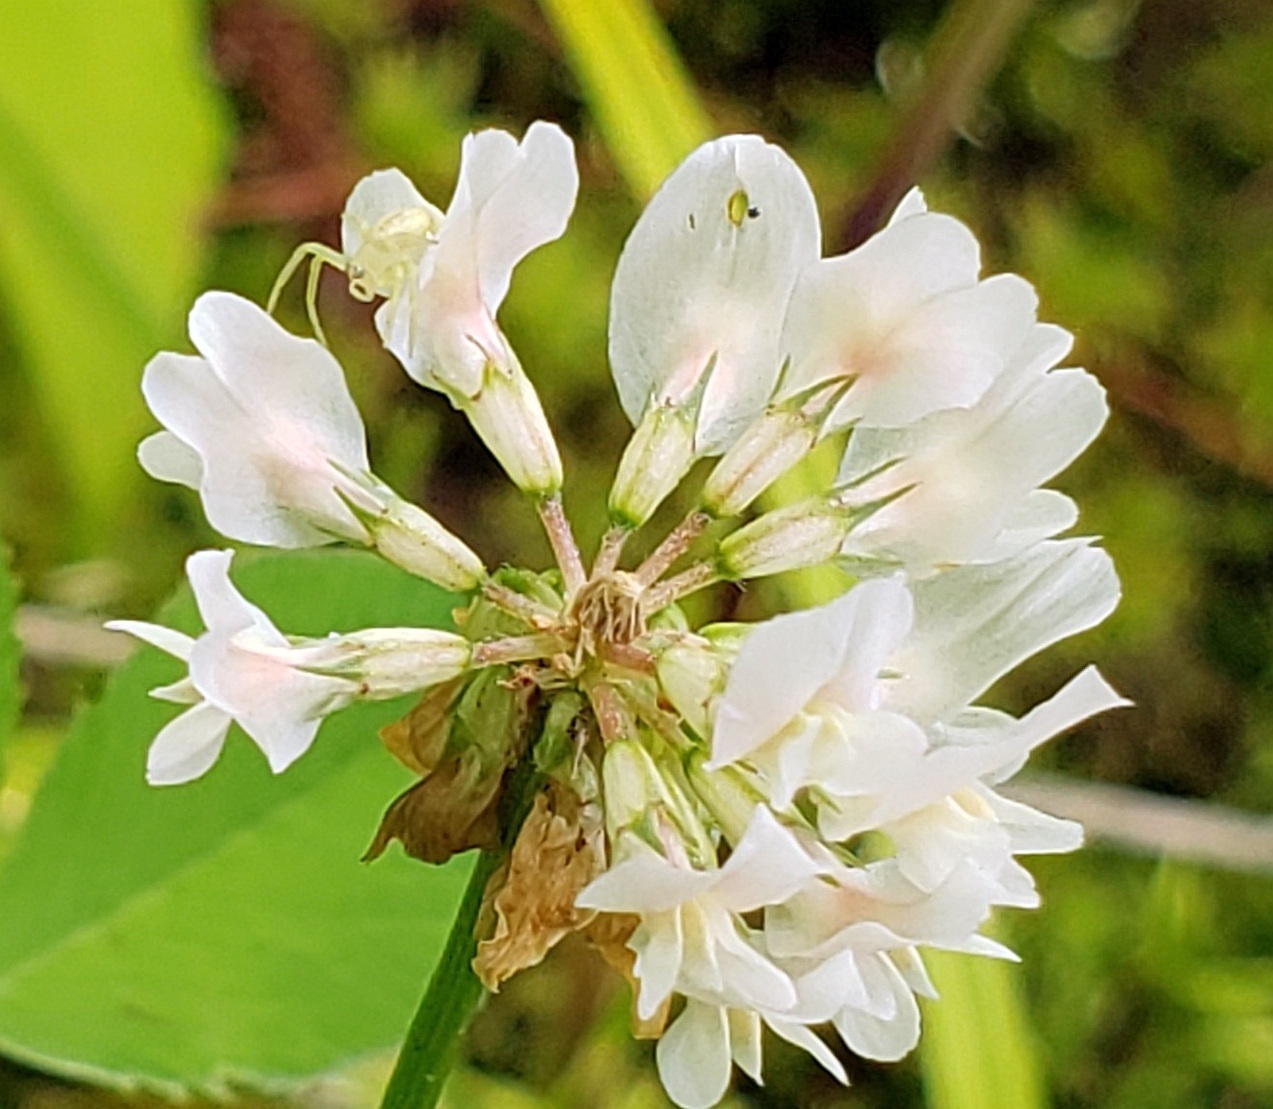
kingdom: Plantae
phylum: Tracheophyta
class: Magnoliopsida
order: Fabales
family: Fabaceae
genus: Coronilla
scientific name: Coronilla varia
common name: Crownvetch
